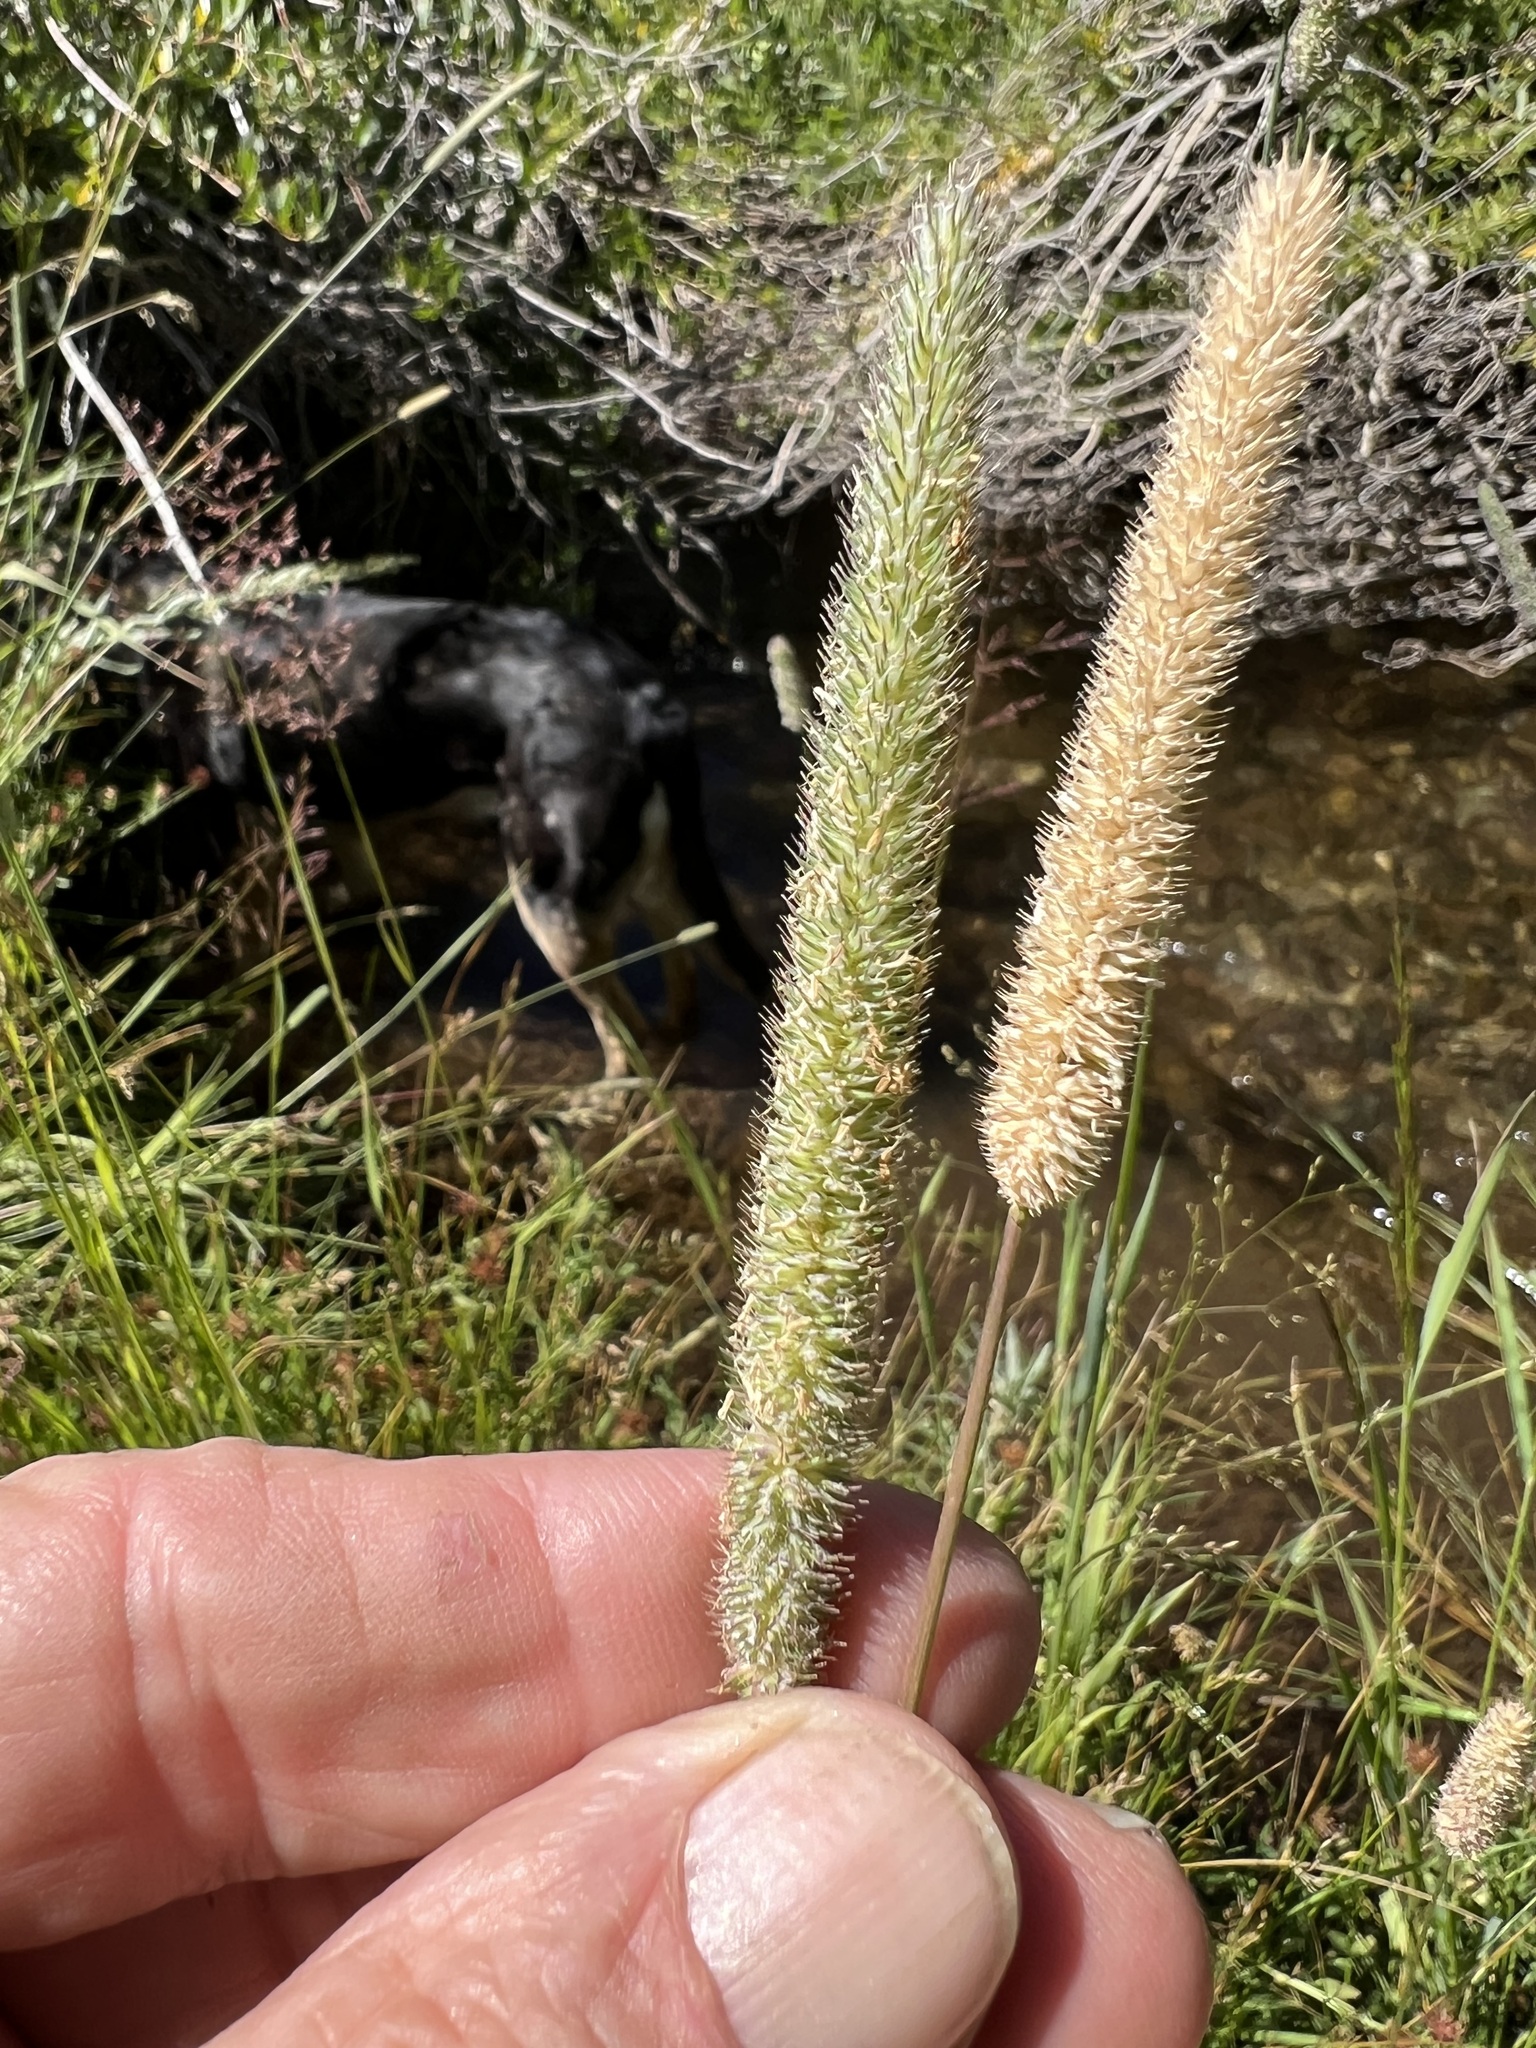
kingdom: Plantae
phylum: Tracheophyta
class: Liliopsida
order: Poales
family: Poaceae
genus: Phleum
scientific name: Phleum pratense
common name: Timothy grass
